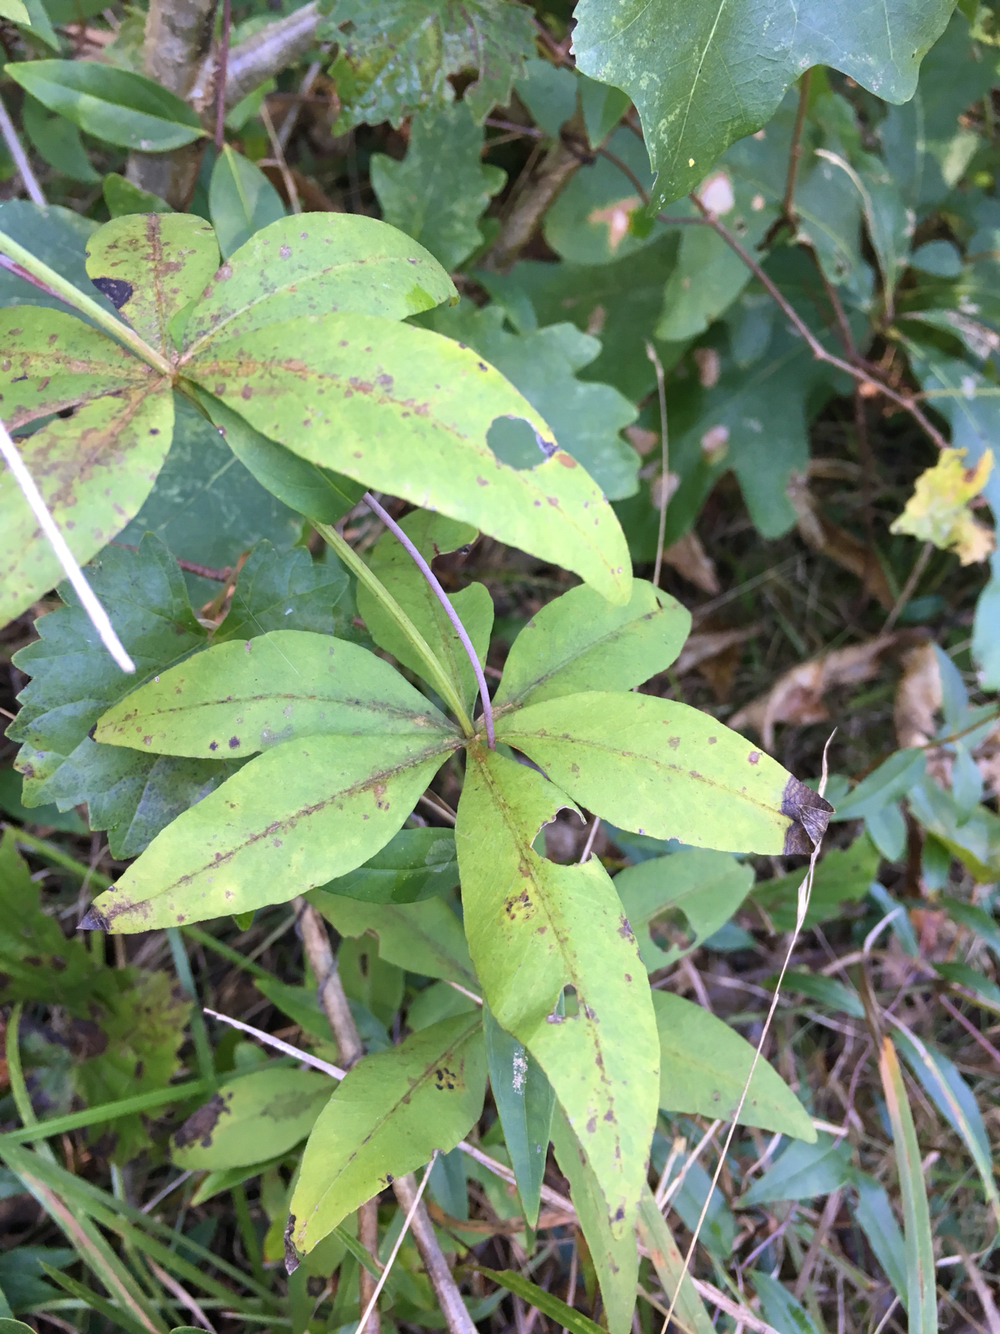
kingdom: Plantae
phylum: Tracheophyta
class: Magnoliopsida
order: Asterales
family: Asteraceae
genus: Coreopsis
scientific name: Coreopsis major
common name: Forest tickseed
